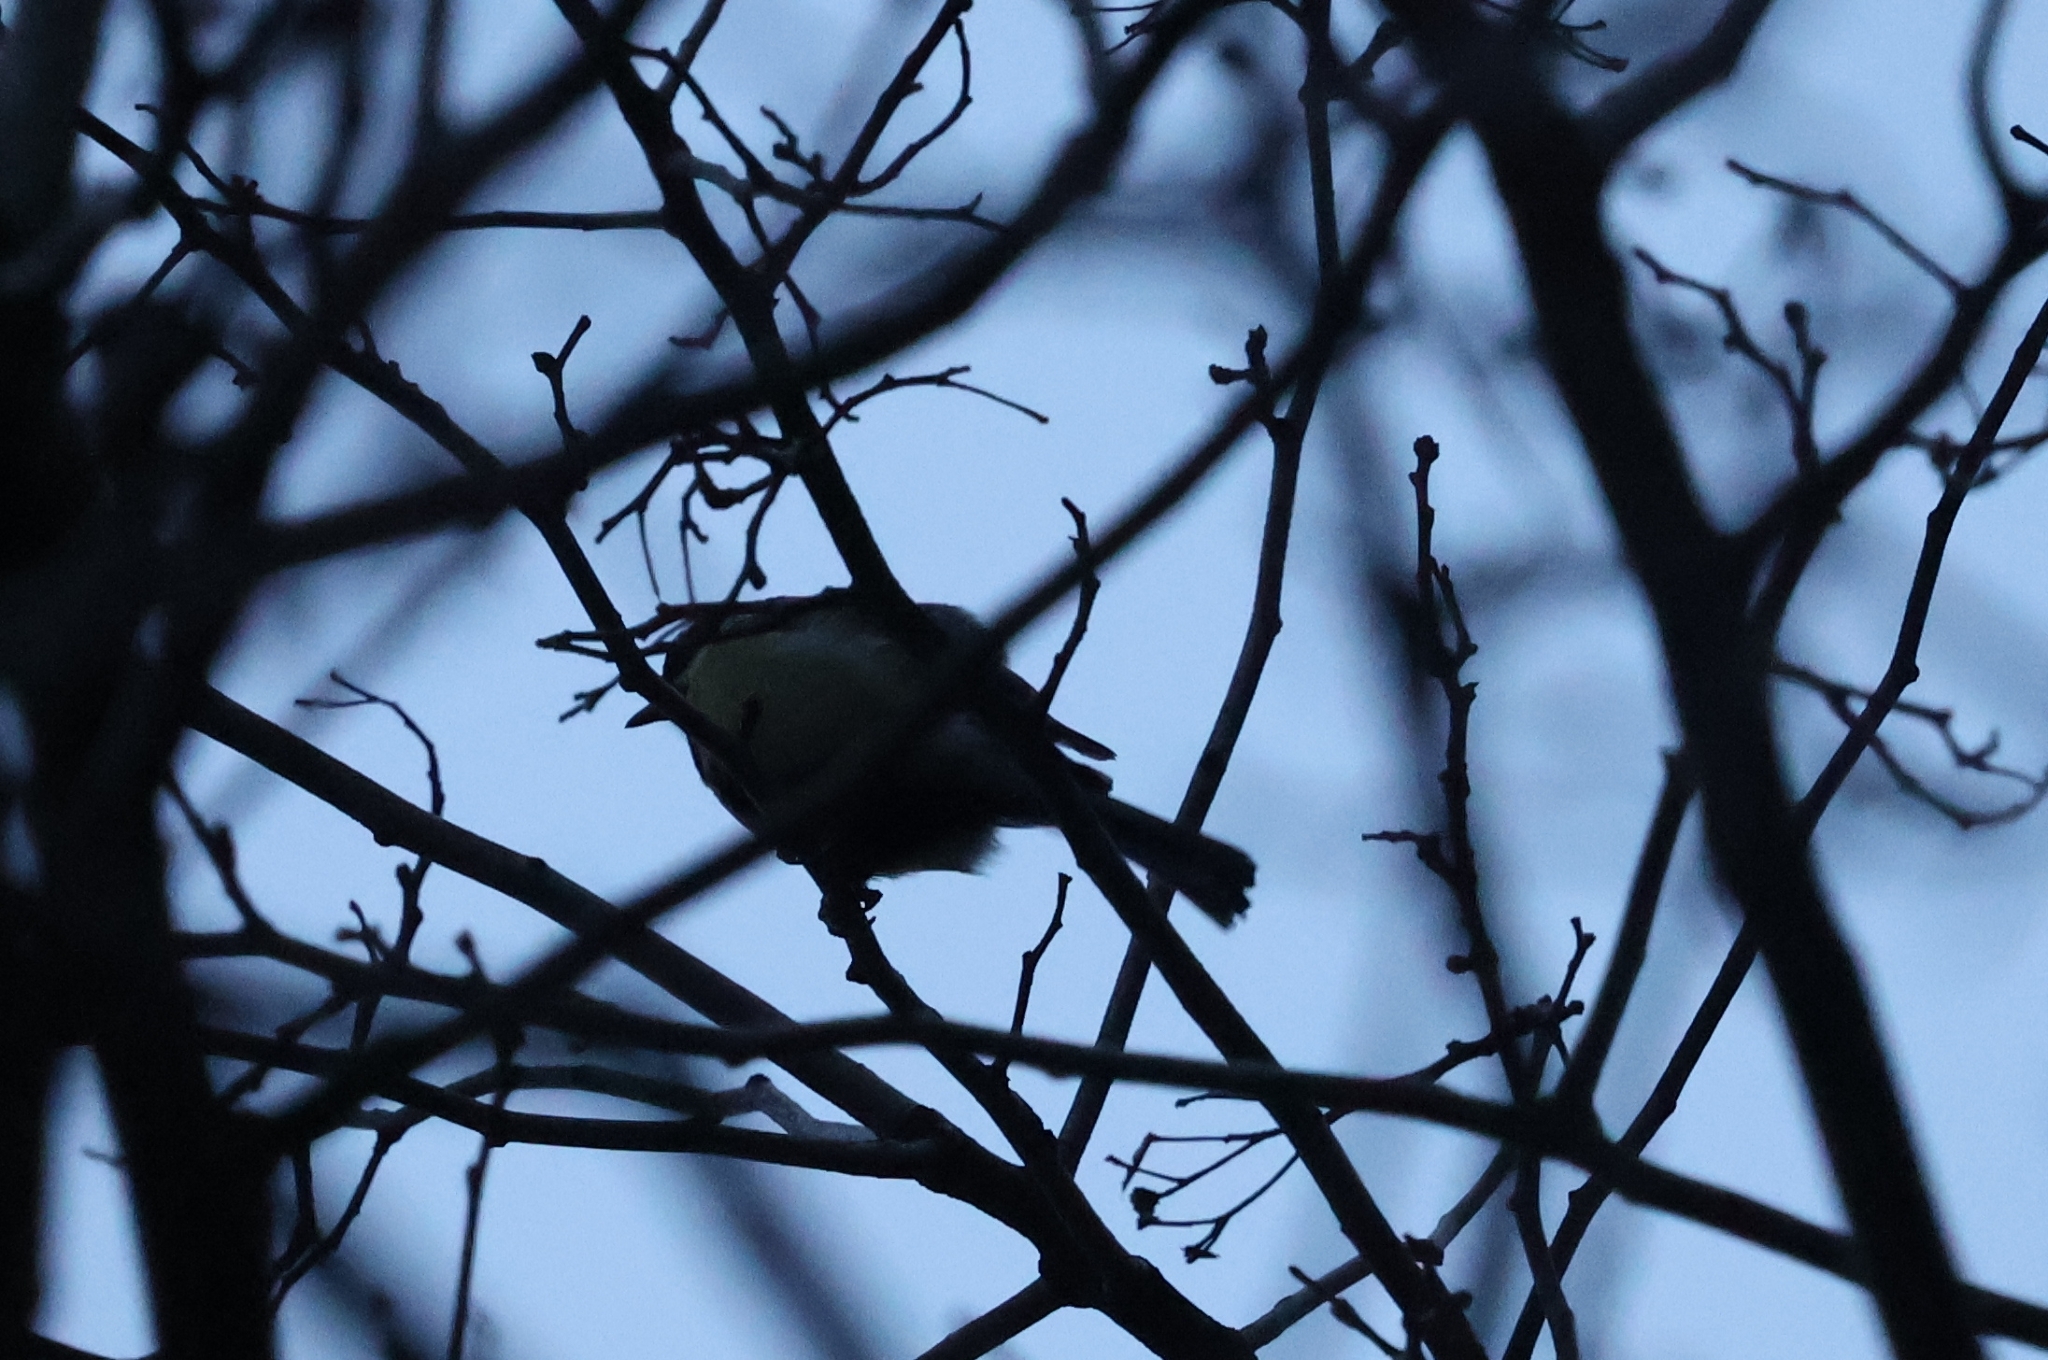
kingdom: Animalia
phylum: Chordata
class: Aves
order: Passeriformes
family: Paridae
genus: Parus
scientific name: Parus major
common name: Great tit
